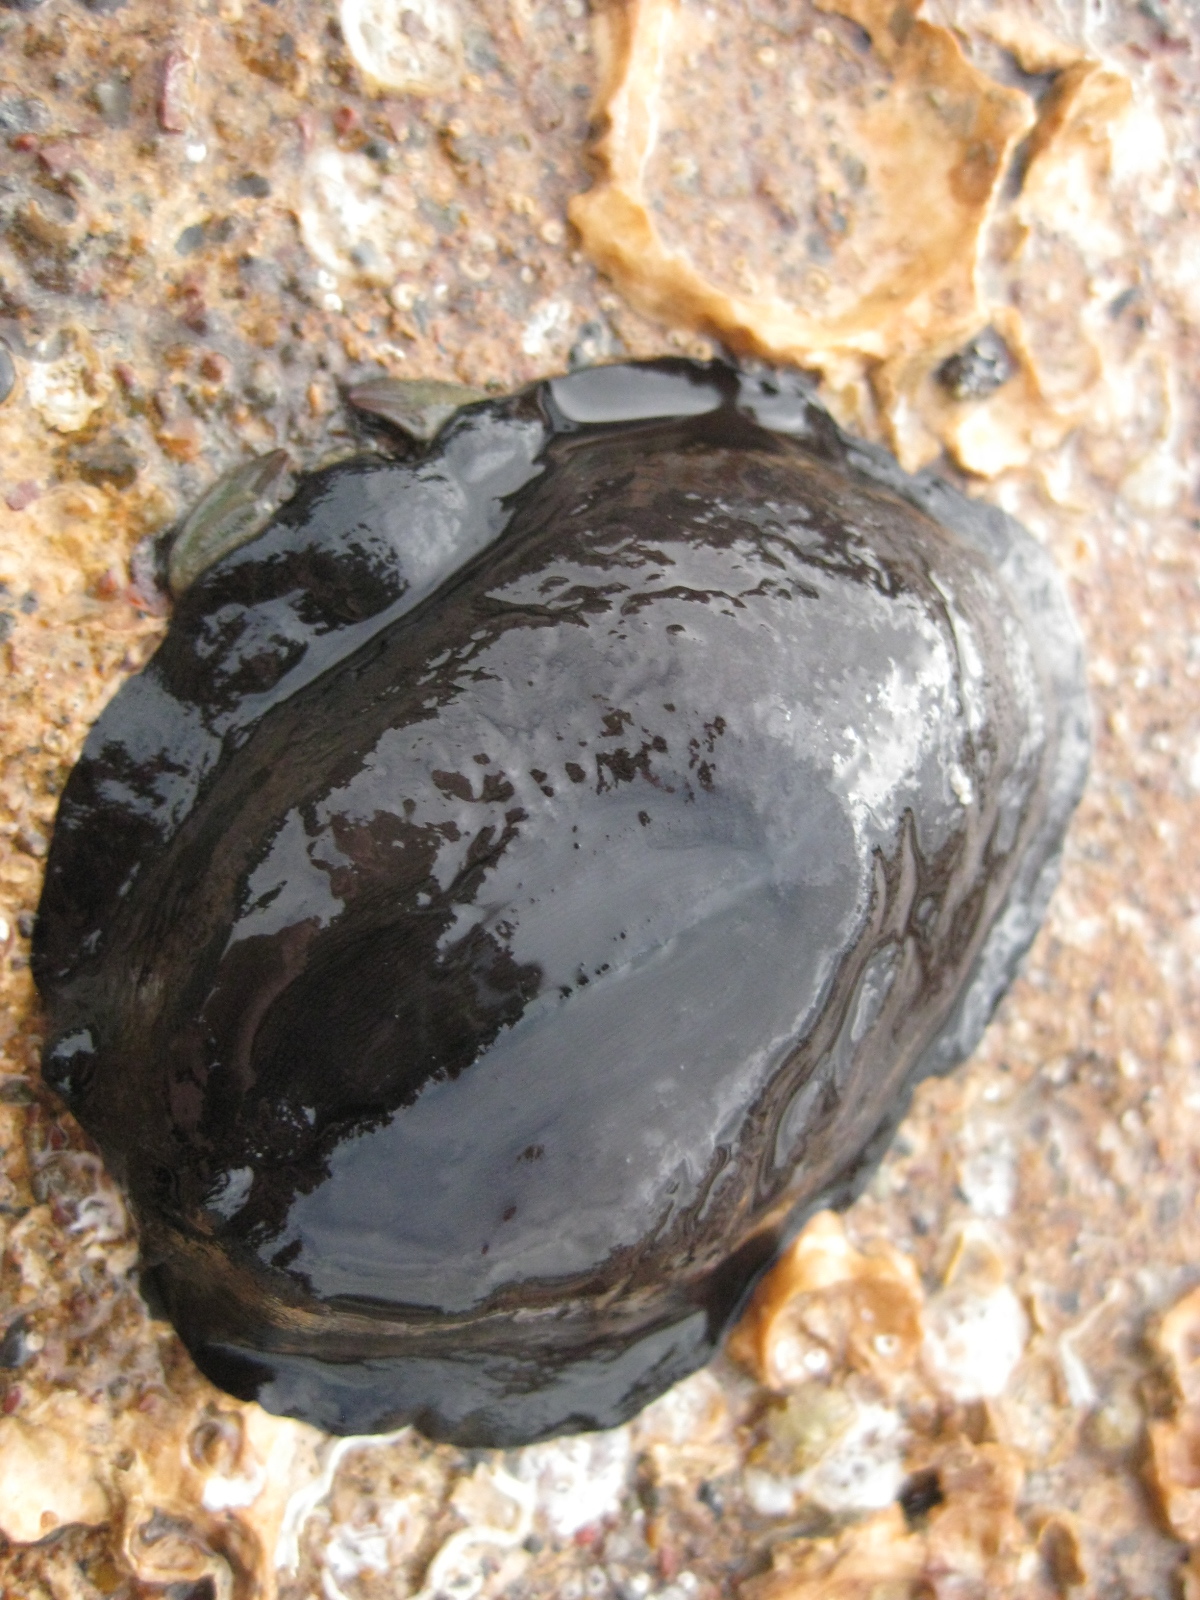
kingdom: Animalia
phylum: Mollusca
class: Gastropoda
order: Lepetellida
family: Fissurellidae
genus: Scutus
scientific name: Scutus breviculus
